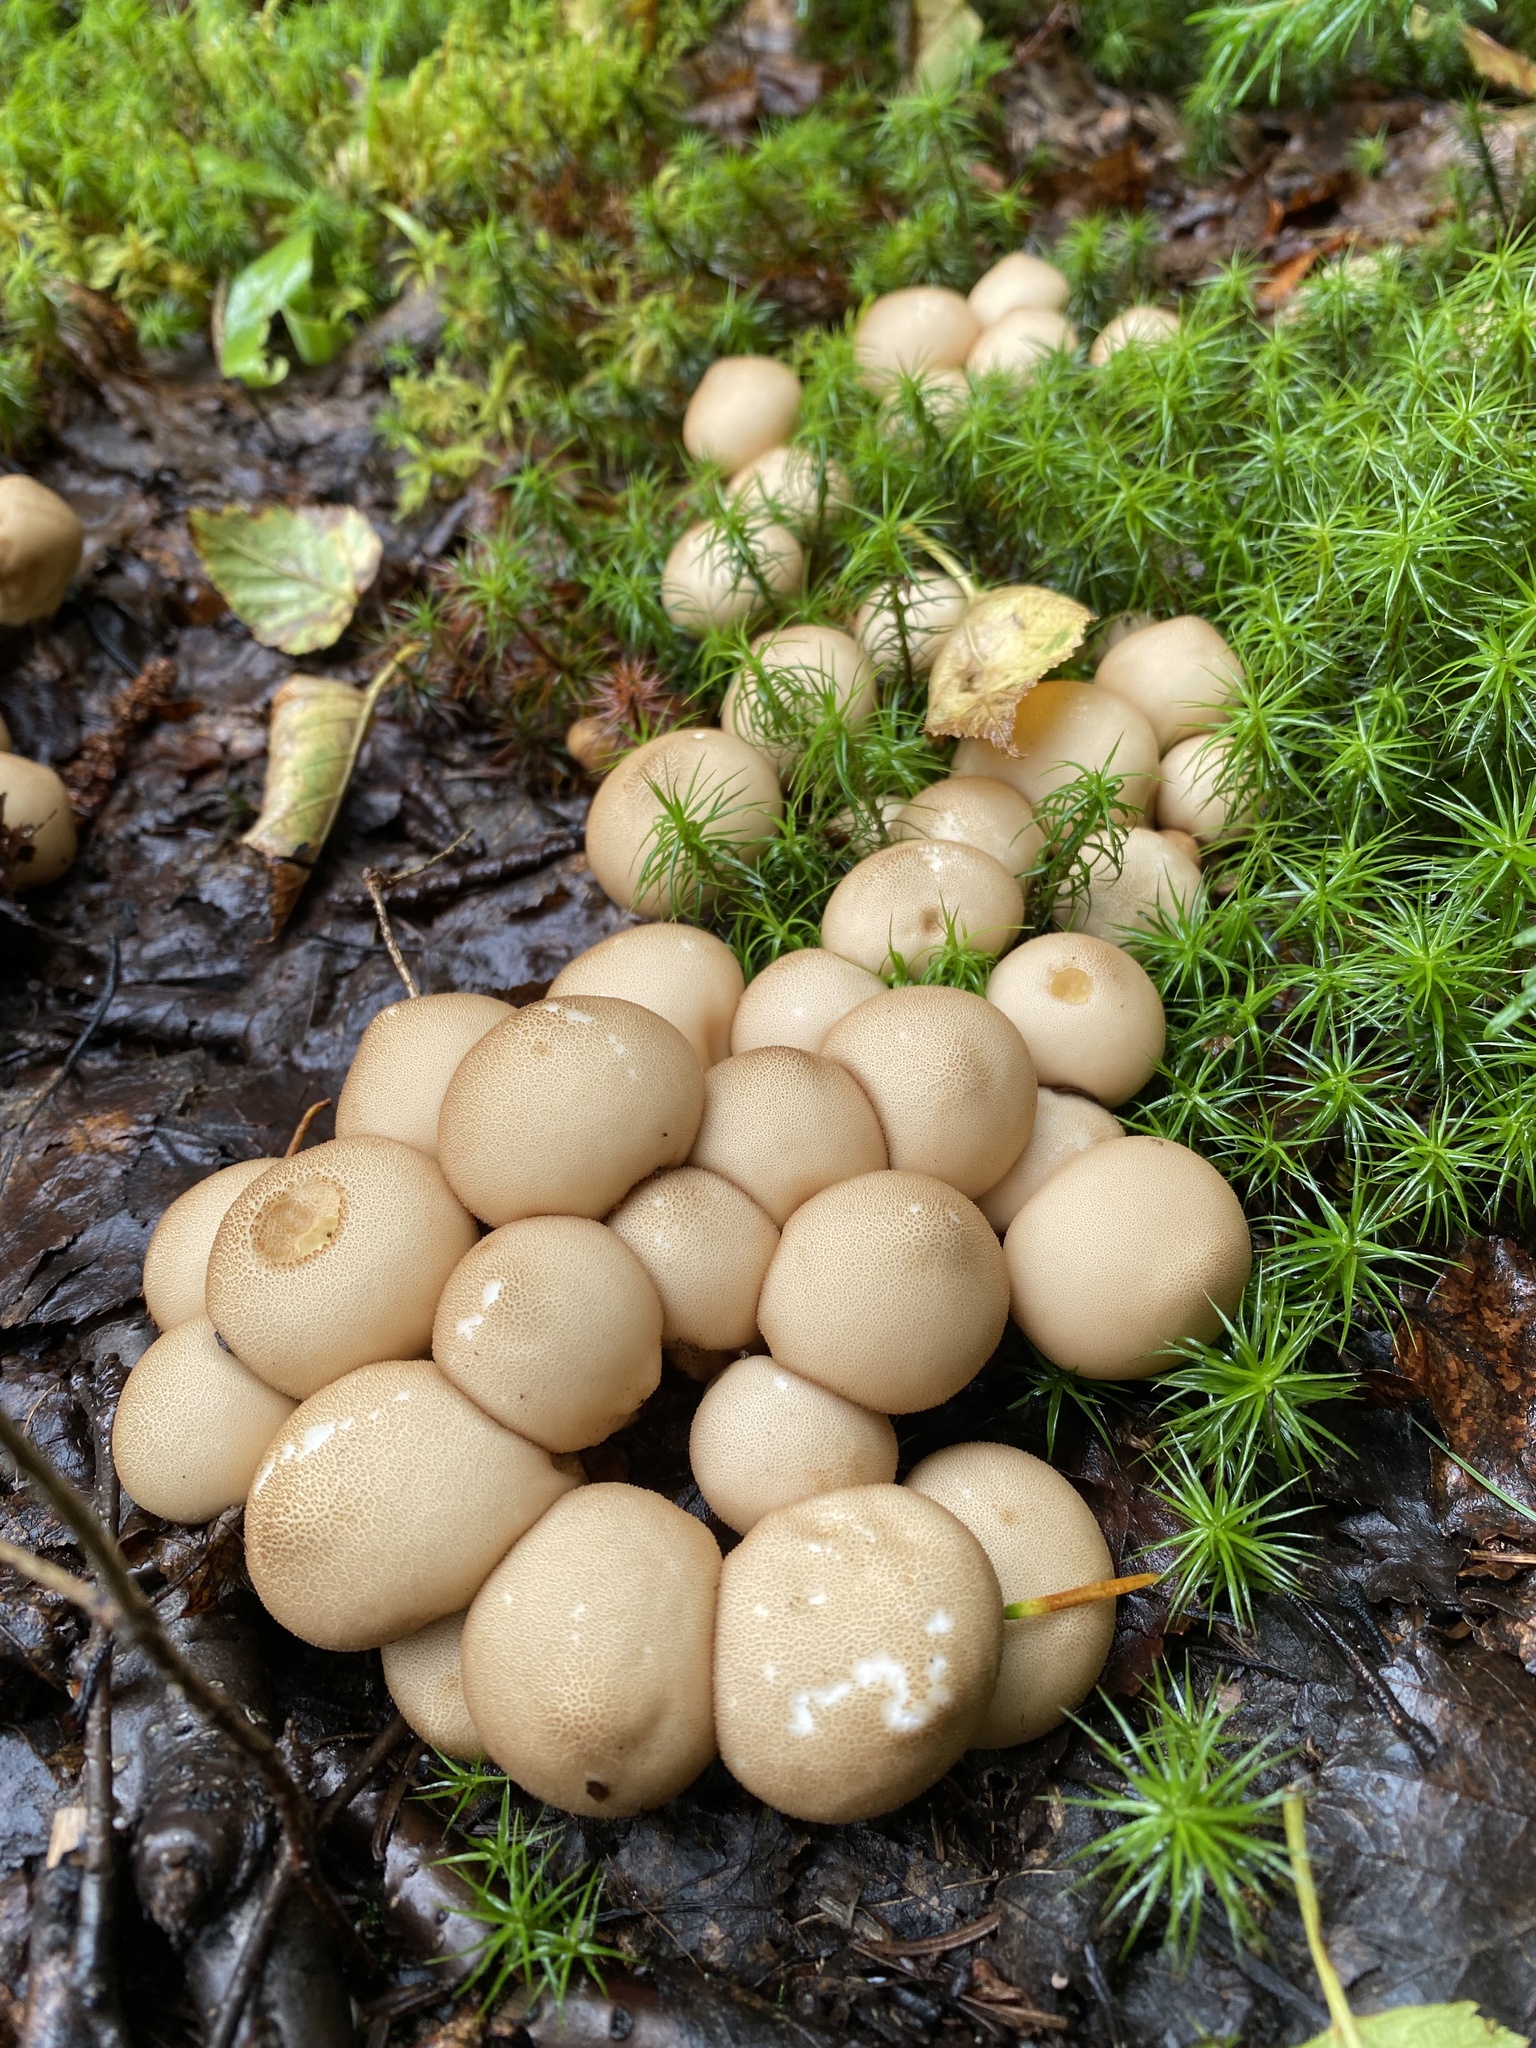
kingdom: Fungi
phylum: Basidiomycota
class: Agaricomycetes
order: Agaricales
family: Lycoperdaceae
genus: Apioperdon
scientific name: Apioperdon pyriforme
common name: Pear-shaped puffball
